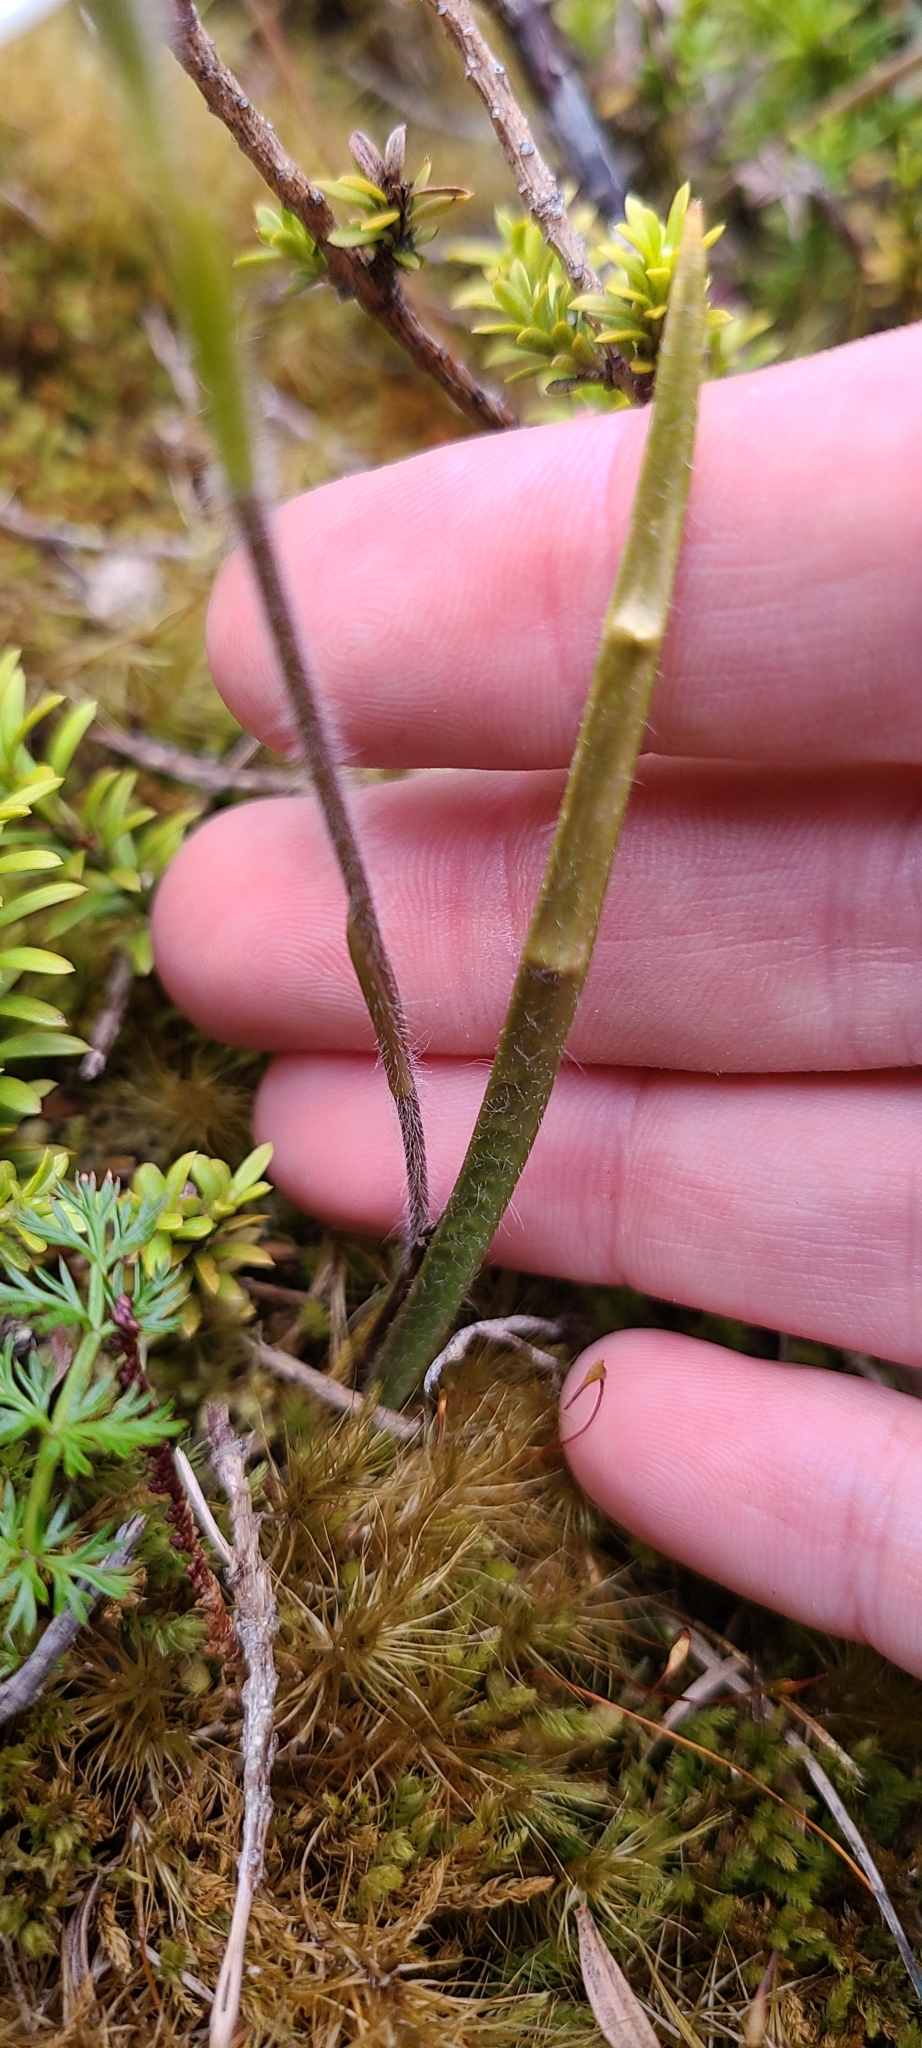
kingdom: Plantae
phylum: Tracheophyta
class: Liliopsida
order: Asparagales
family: Orchidaceae
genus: Caladenia
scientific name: Caladenia lyallii
